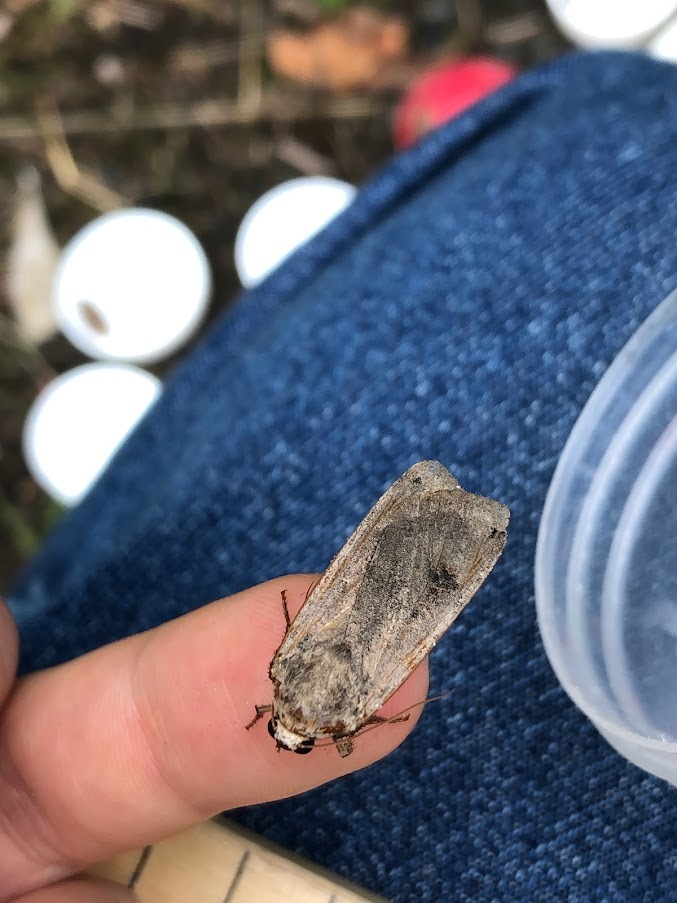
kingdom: Animalia
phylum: Arthropoda
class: Insecta
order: Lepidoptera
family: Noctuidae
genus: Noctua
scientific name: Noctua pronuba
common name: Large yellow underwing
